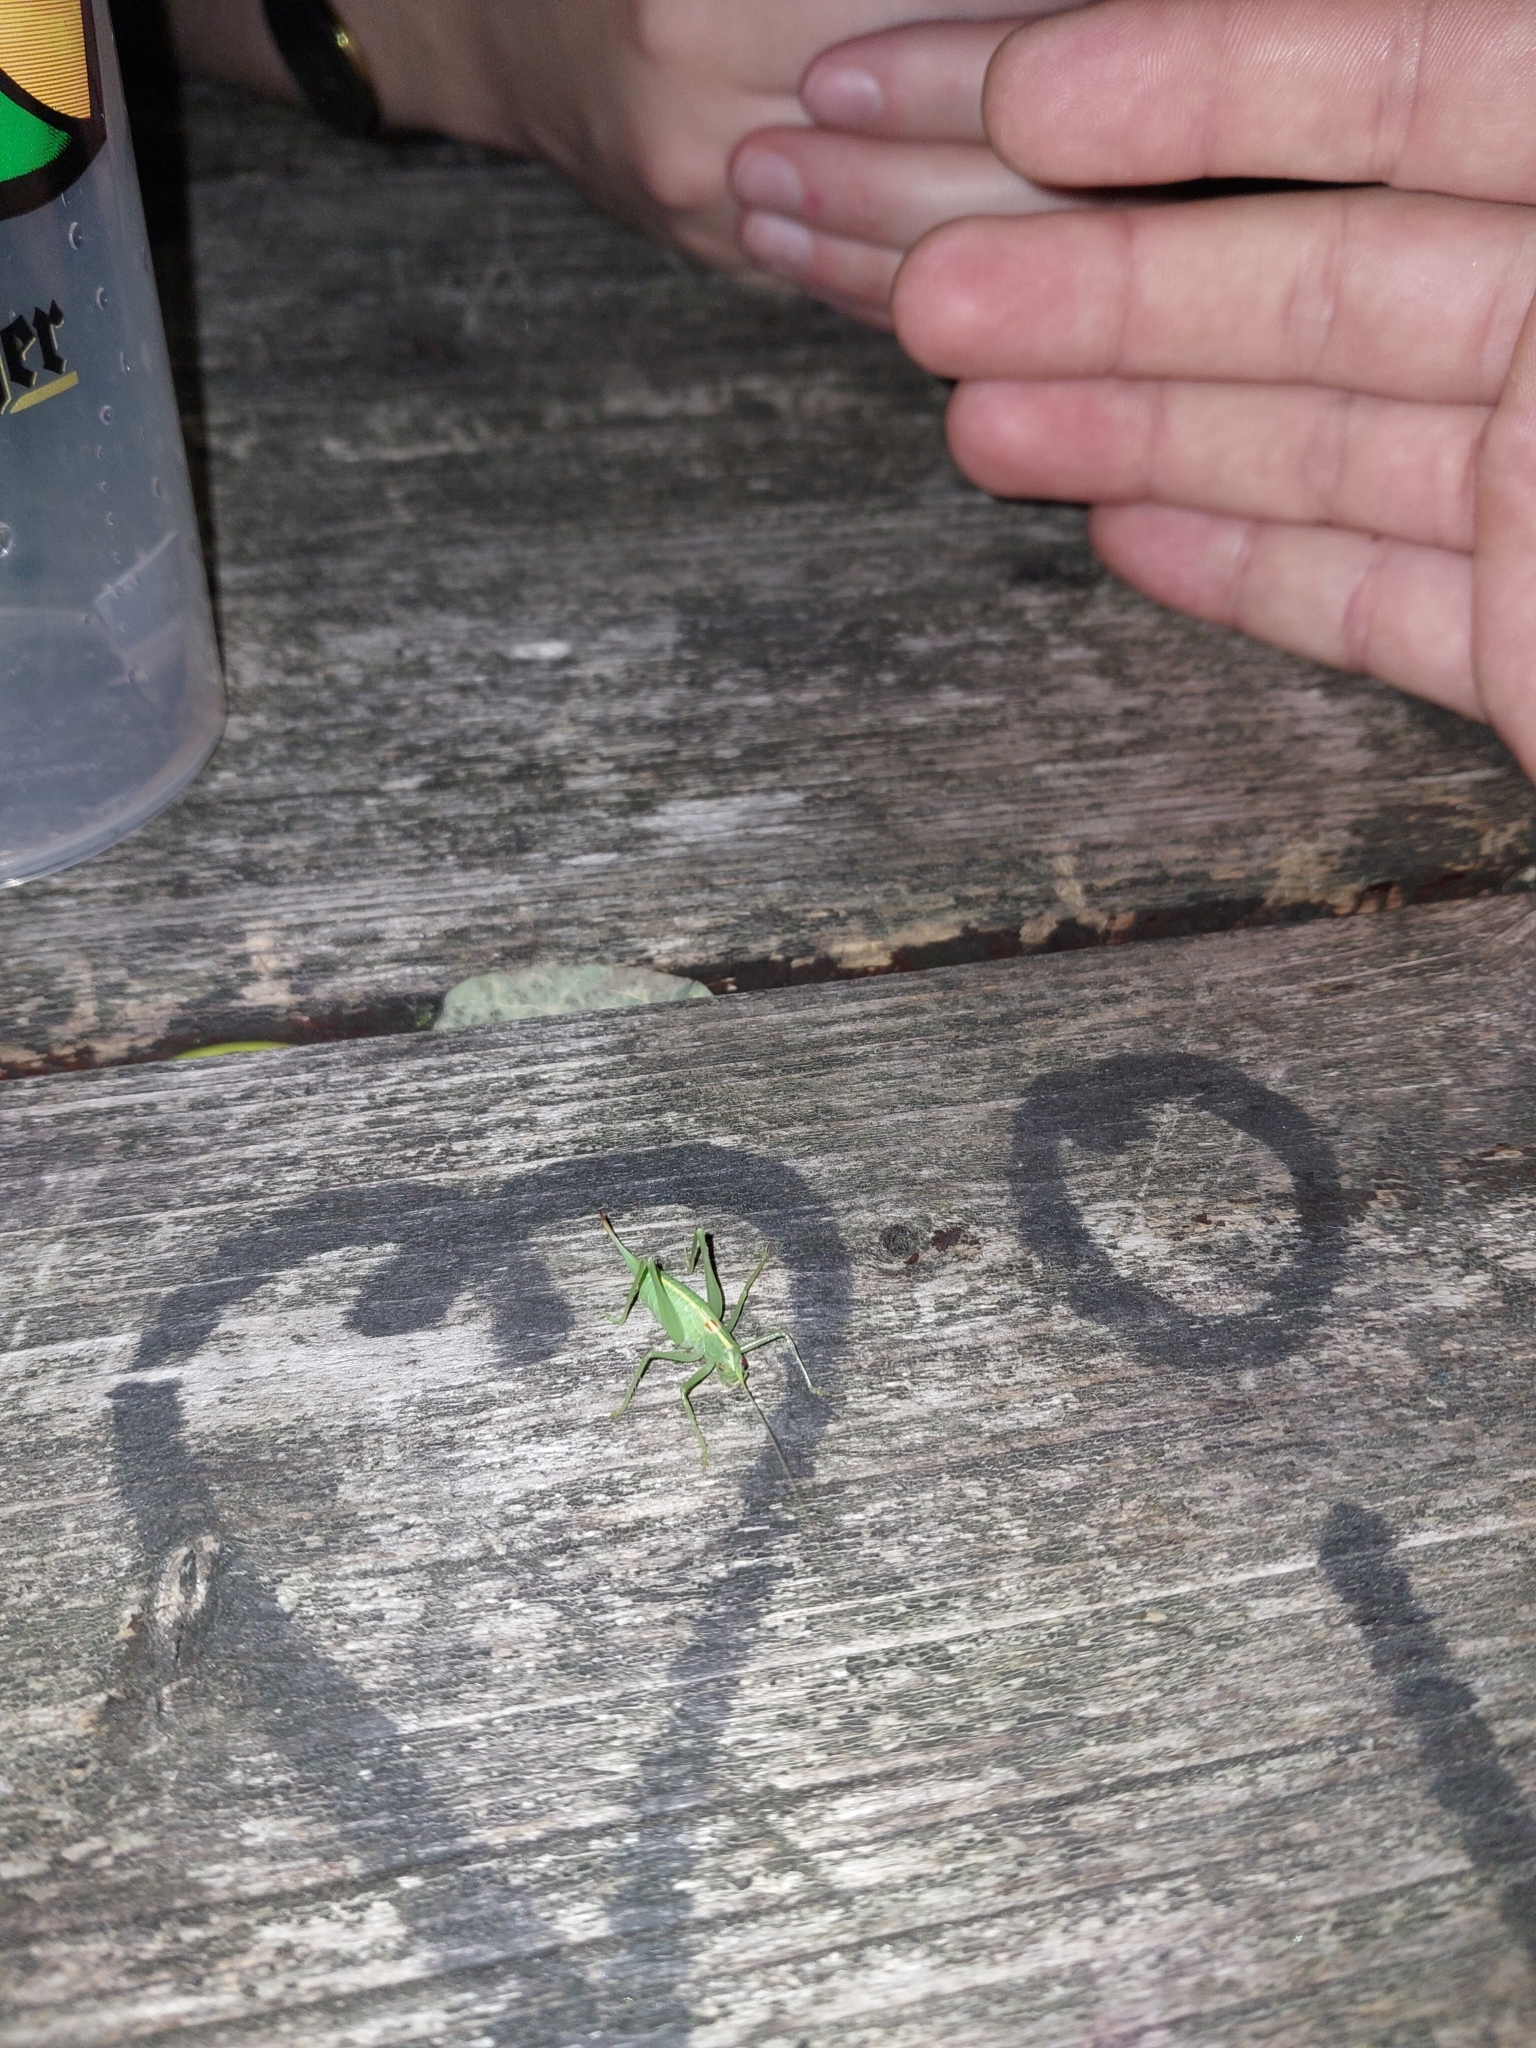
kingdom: Animalia
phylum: Arthropoda
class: Insecta
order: Orthoptera
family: Tettigoniidae
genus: Meconema
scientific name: Meconema meridionale
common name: Southern oak bush-cricket
